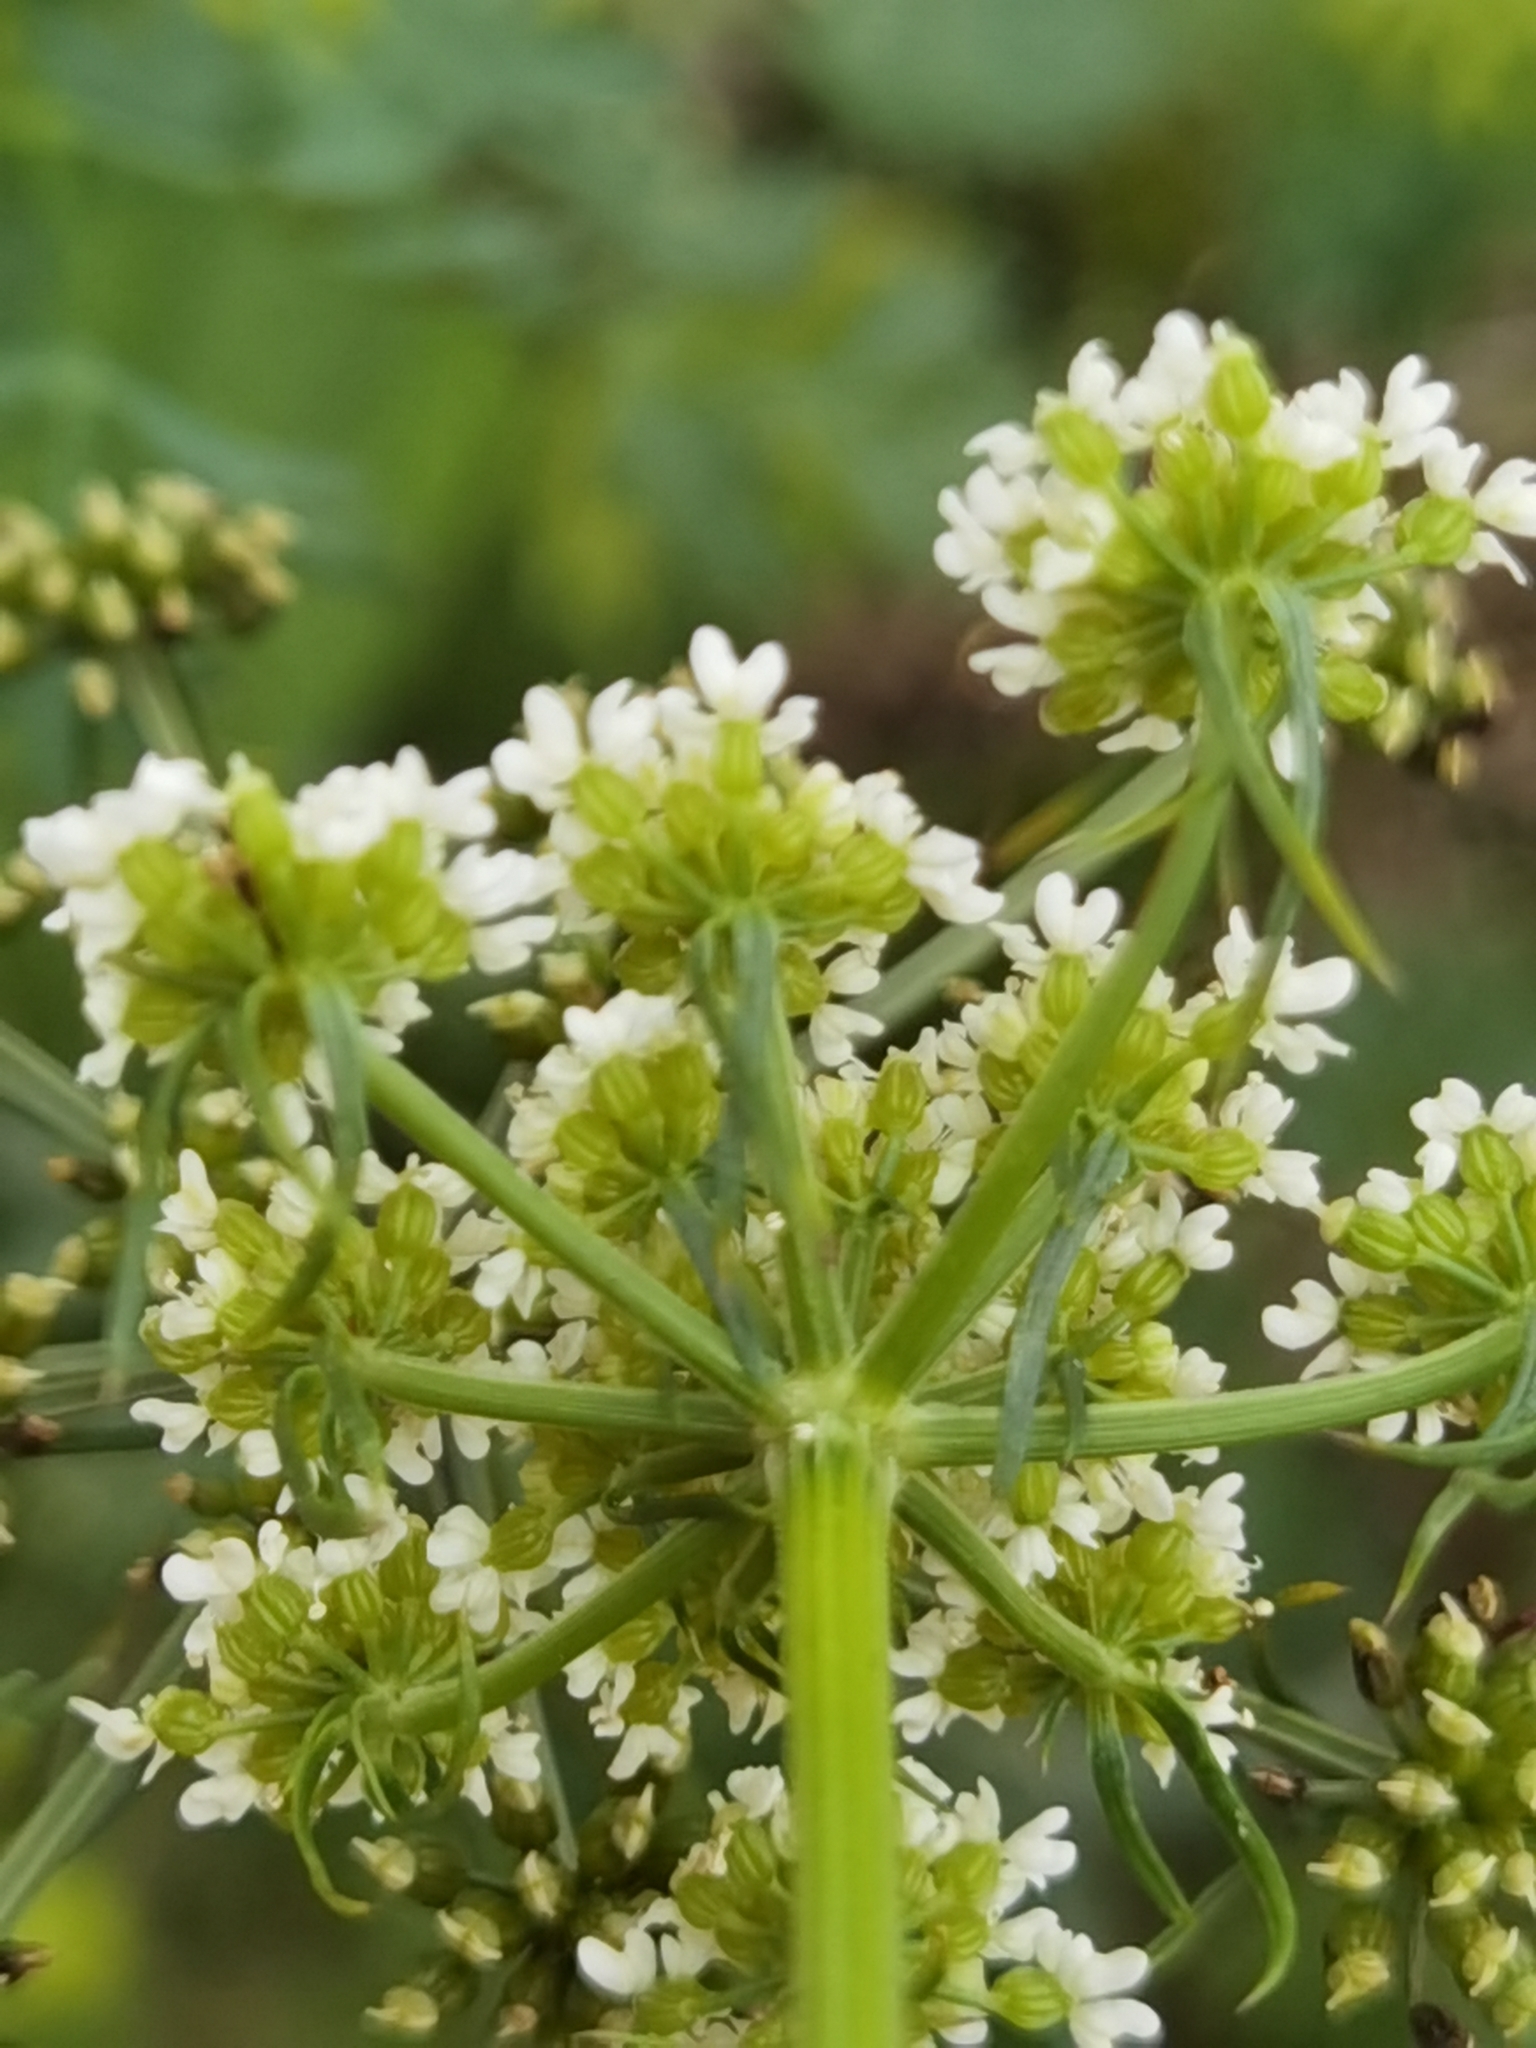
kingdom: Plantae
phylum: Tracheophyta
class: Magnoliopsida
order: Apiales
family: Apiaceae
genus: Aethusa
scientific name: Aethusa cynapium
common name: Fool's parsley
